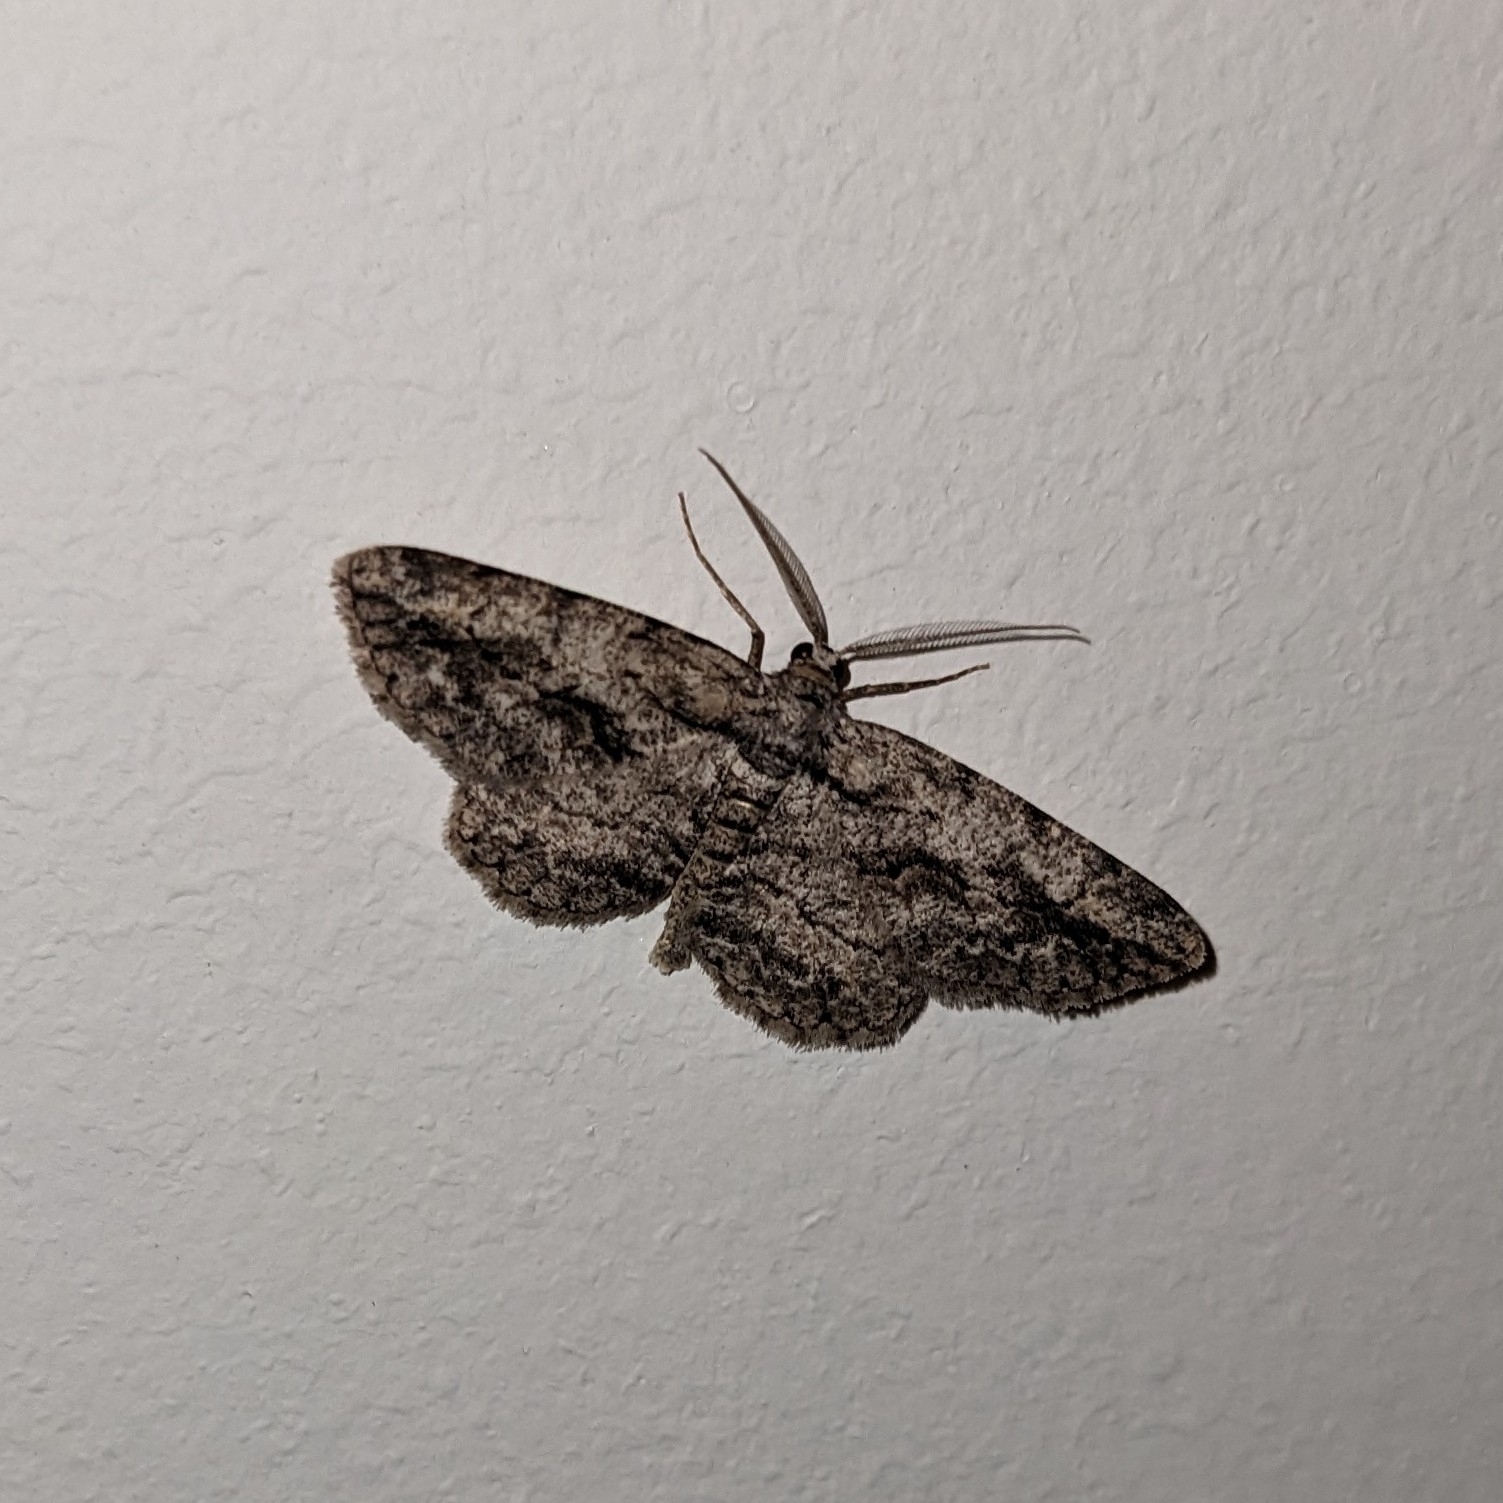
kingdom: Animalia
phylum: Arthropoda
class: Insecta
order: Lepidoptera
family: Geometridae
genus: Anavitrinella
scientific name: Anavitrinella pampinaria
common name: Common gray
